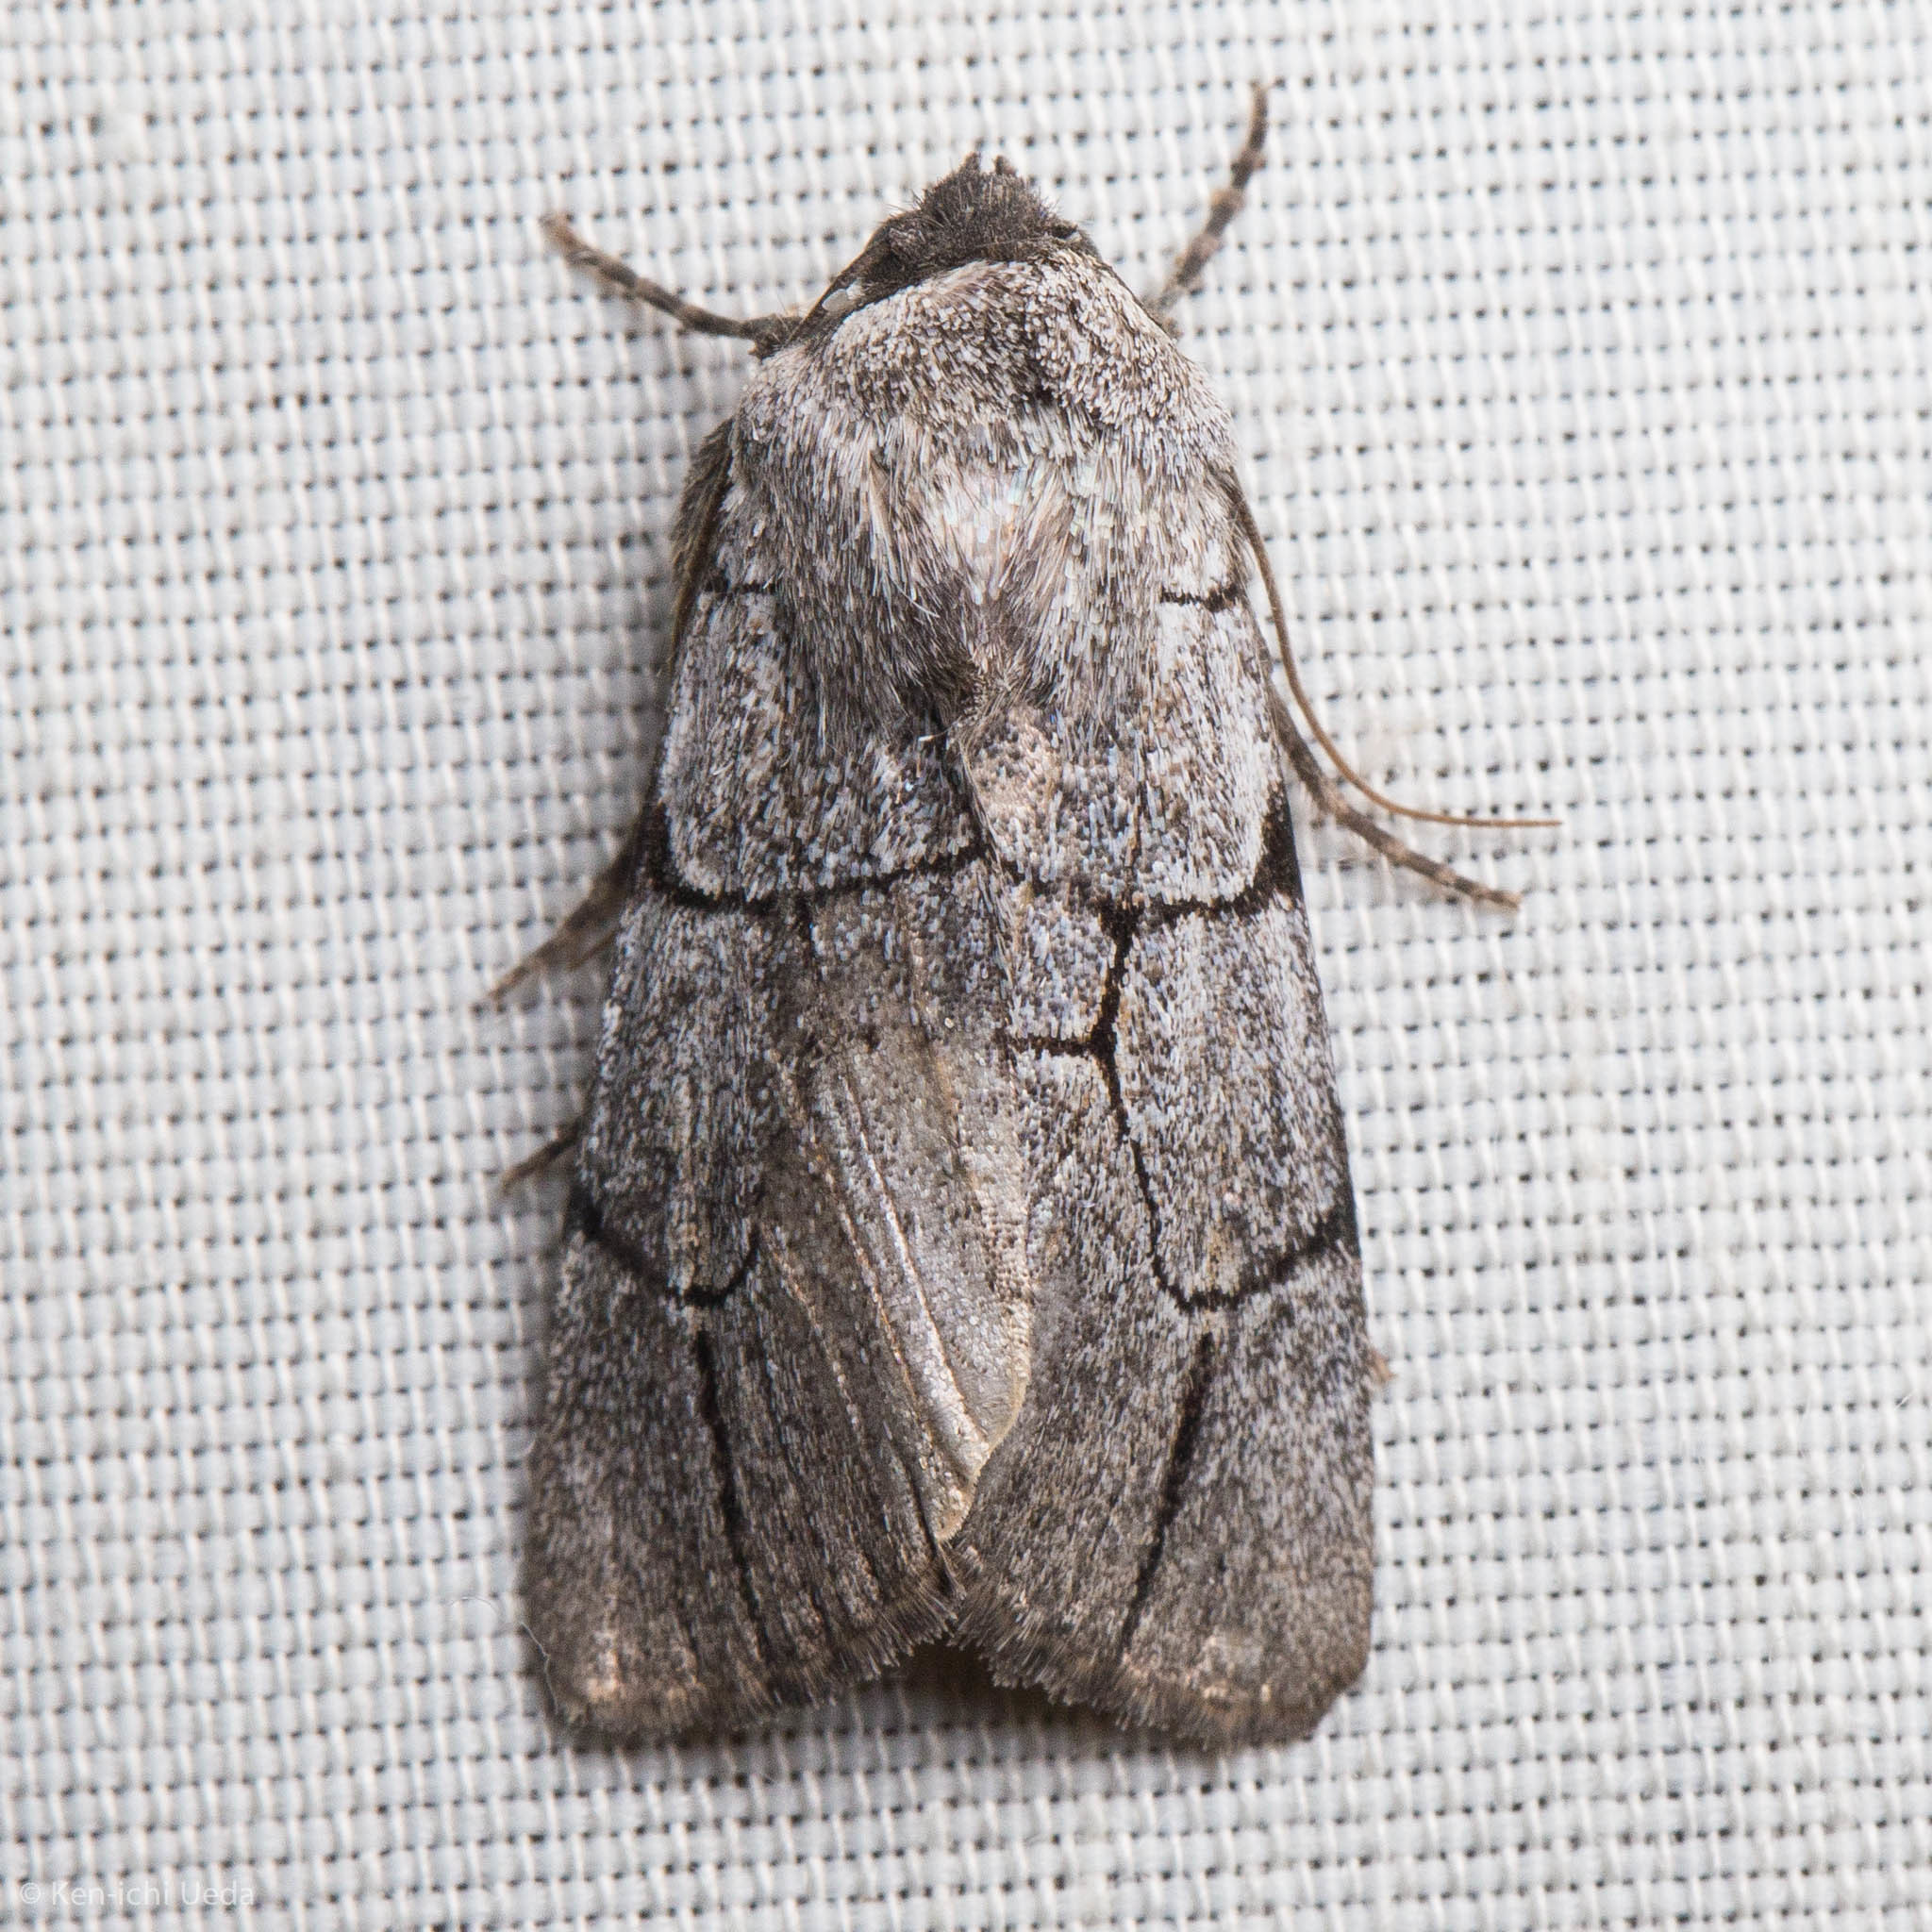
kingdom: Animalia
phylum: Arthropoda
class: Insecta
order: Lepidoptera
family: Noctuidae
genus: Sympistis
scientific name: Sympistis ragani
